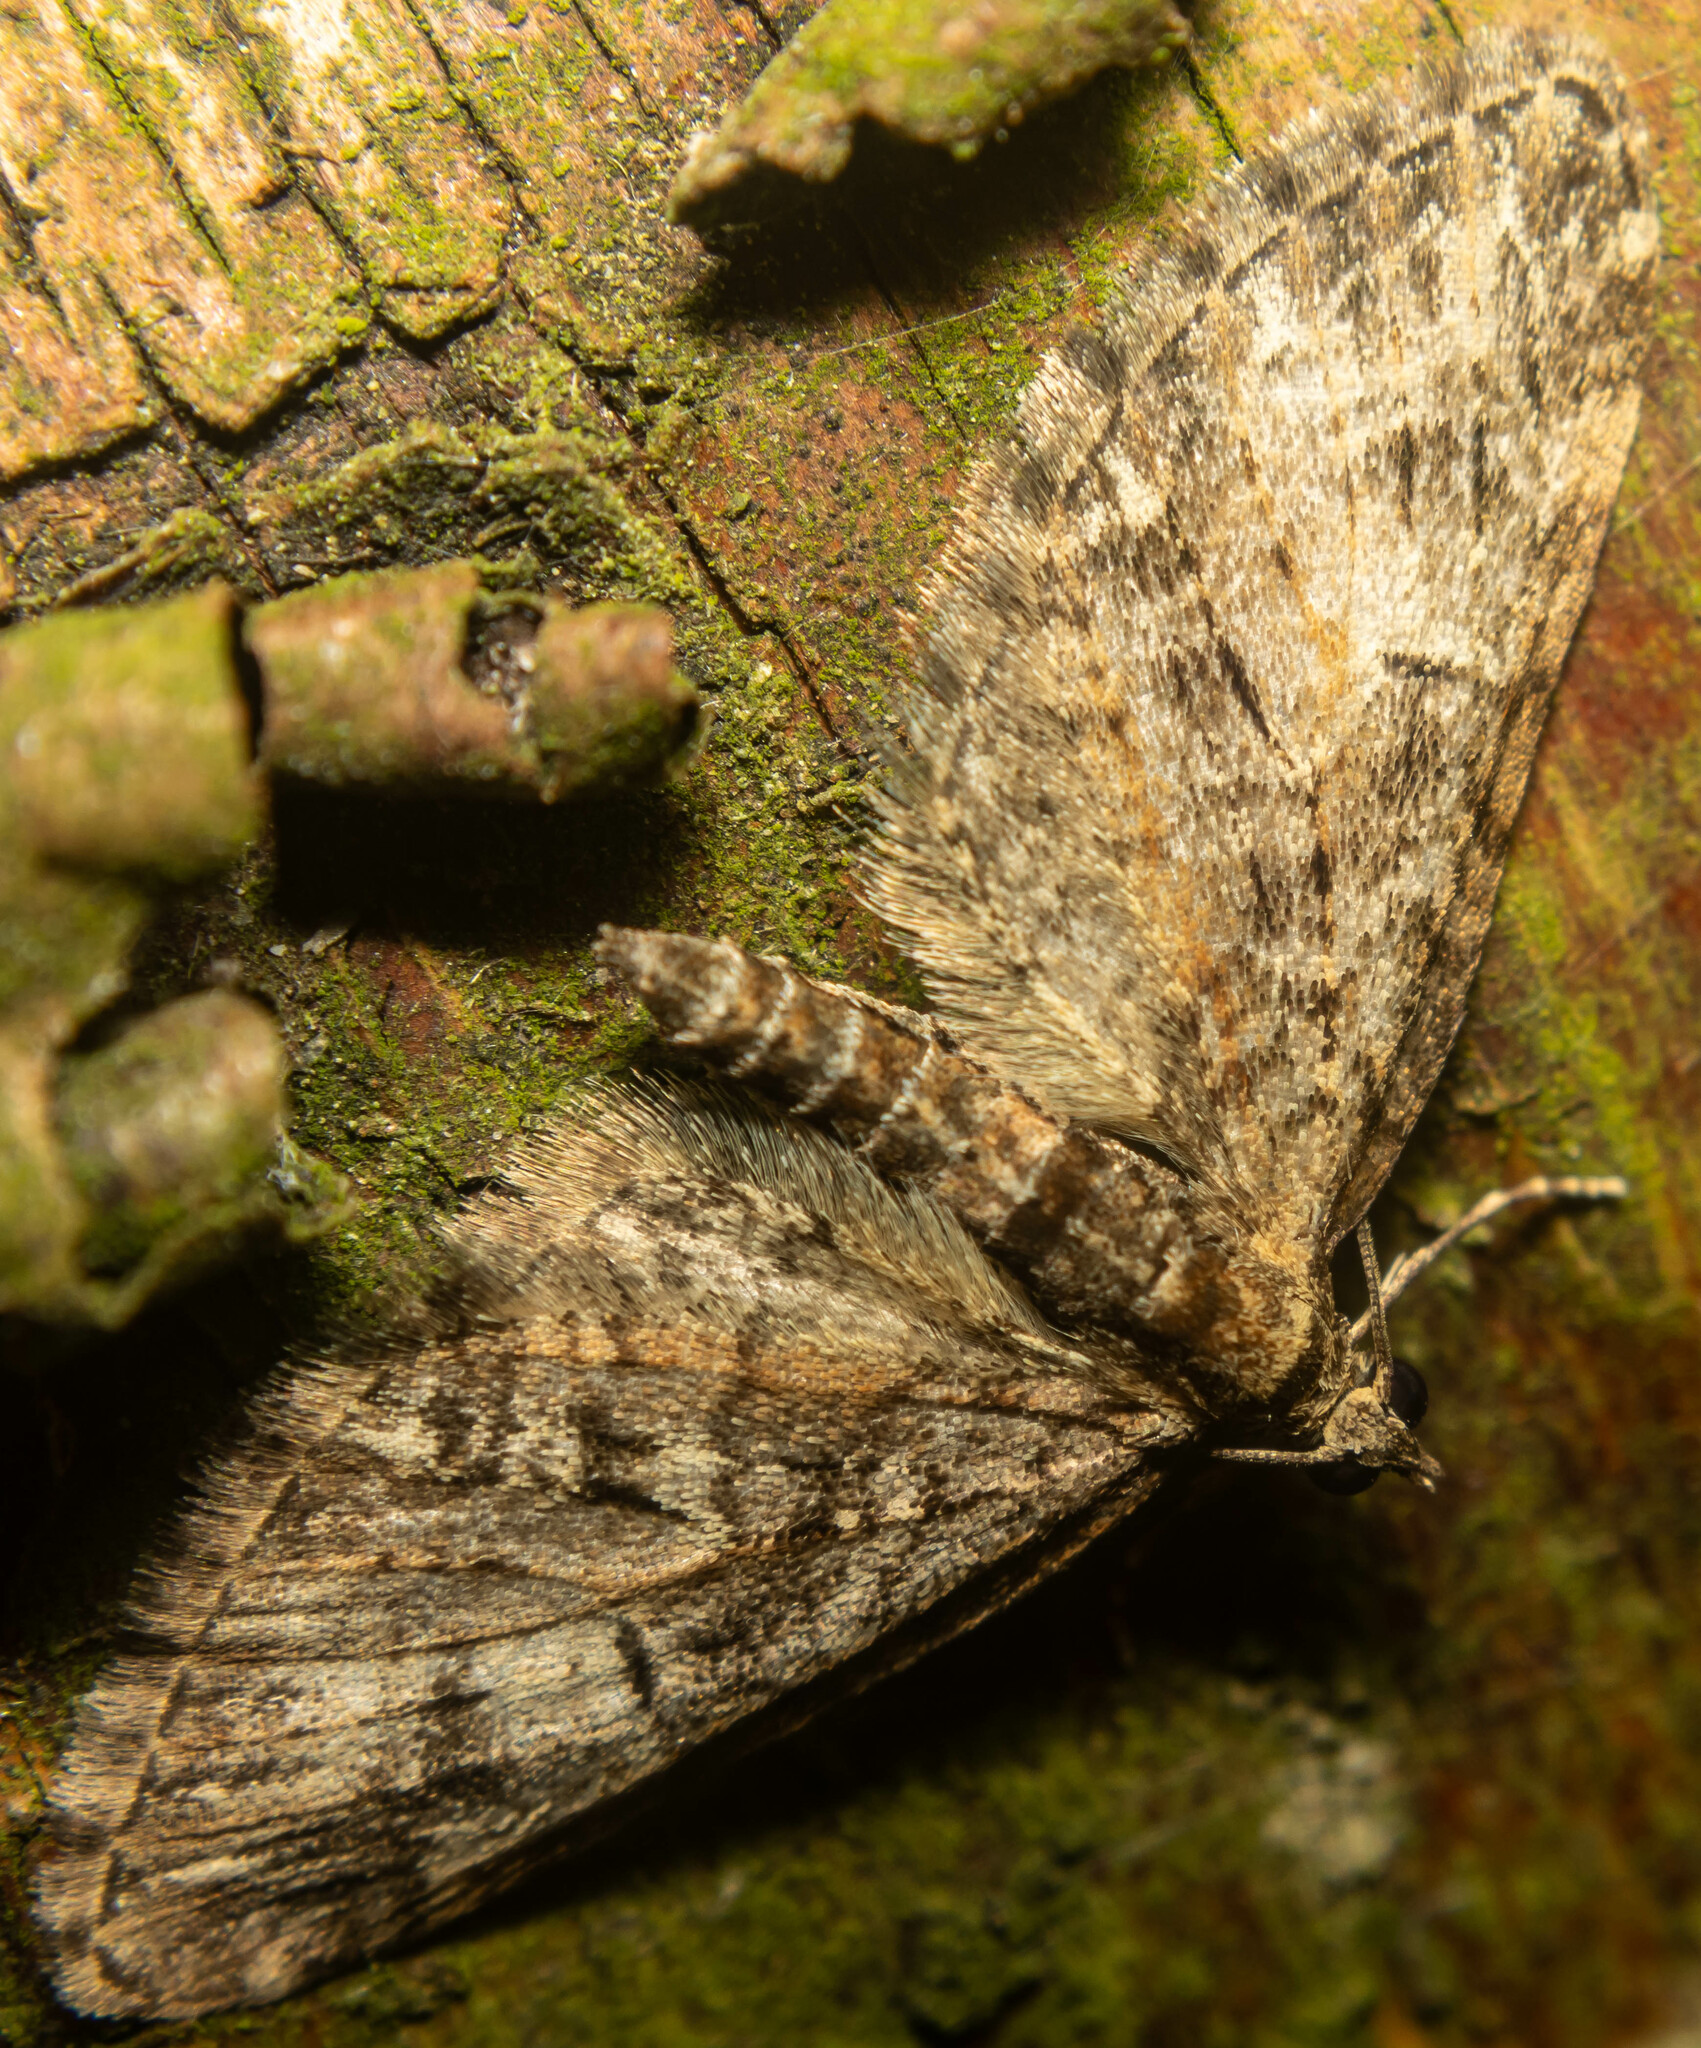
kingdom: Animalia
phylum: Arthropoda
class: Insecta
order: Lepidoptera
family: Geometridae
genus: Eupithecia
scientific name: Eupithecia abbreviata
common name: Brindled pug
